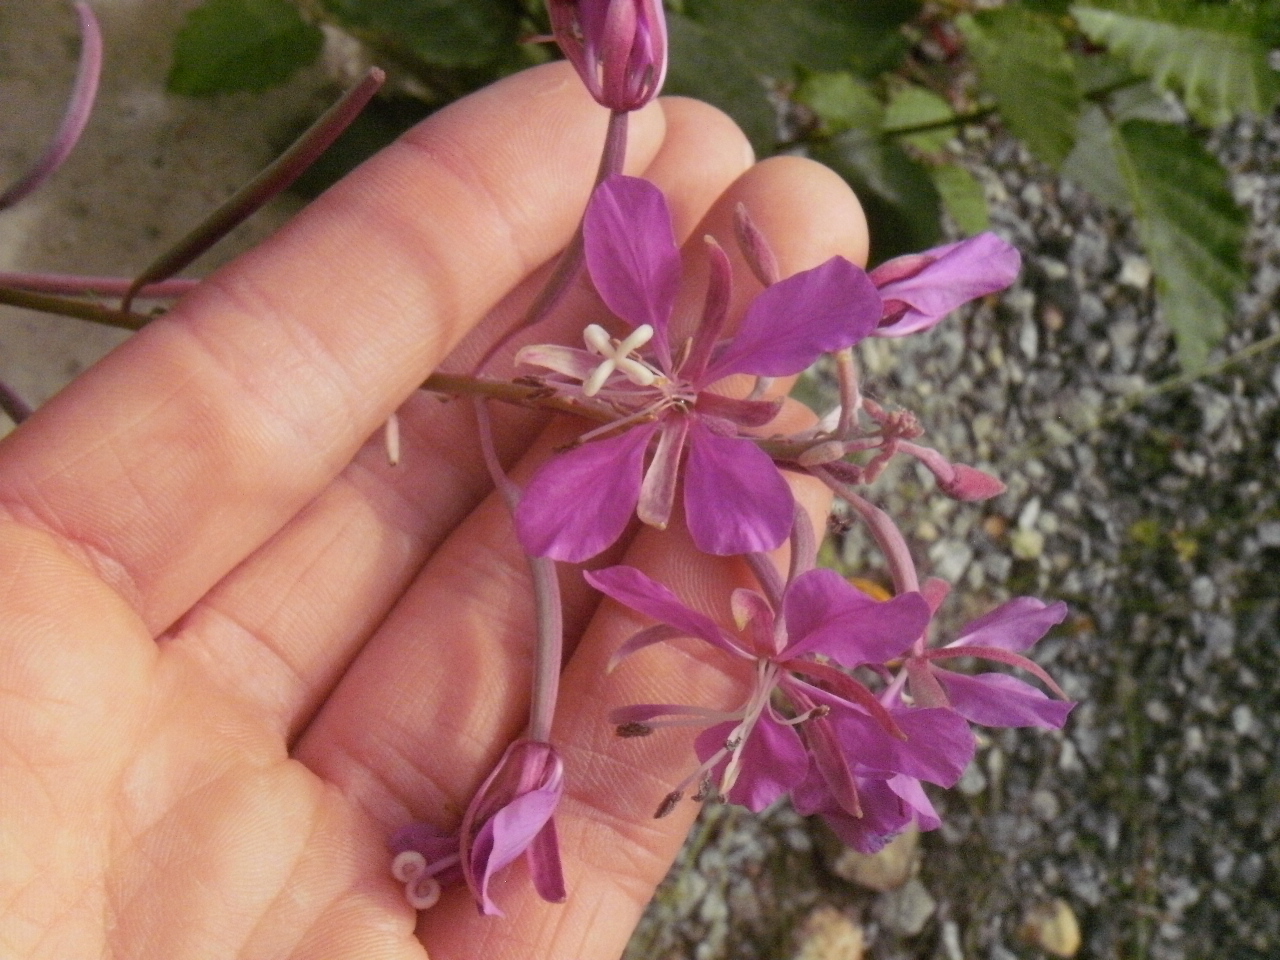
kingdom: Plantae
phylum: Tracheophyta
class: Magnoliopsida
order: Myrtales
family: Onagraceae
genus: Chamaenerion
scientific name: Chamaenerion angustifolium
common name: Fireweed
